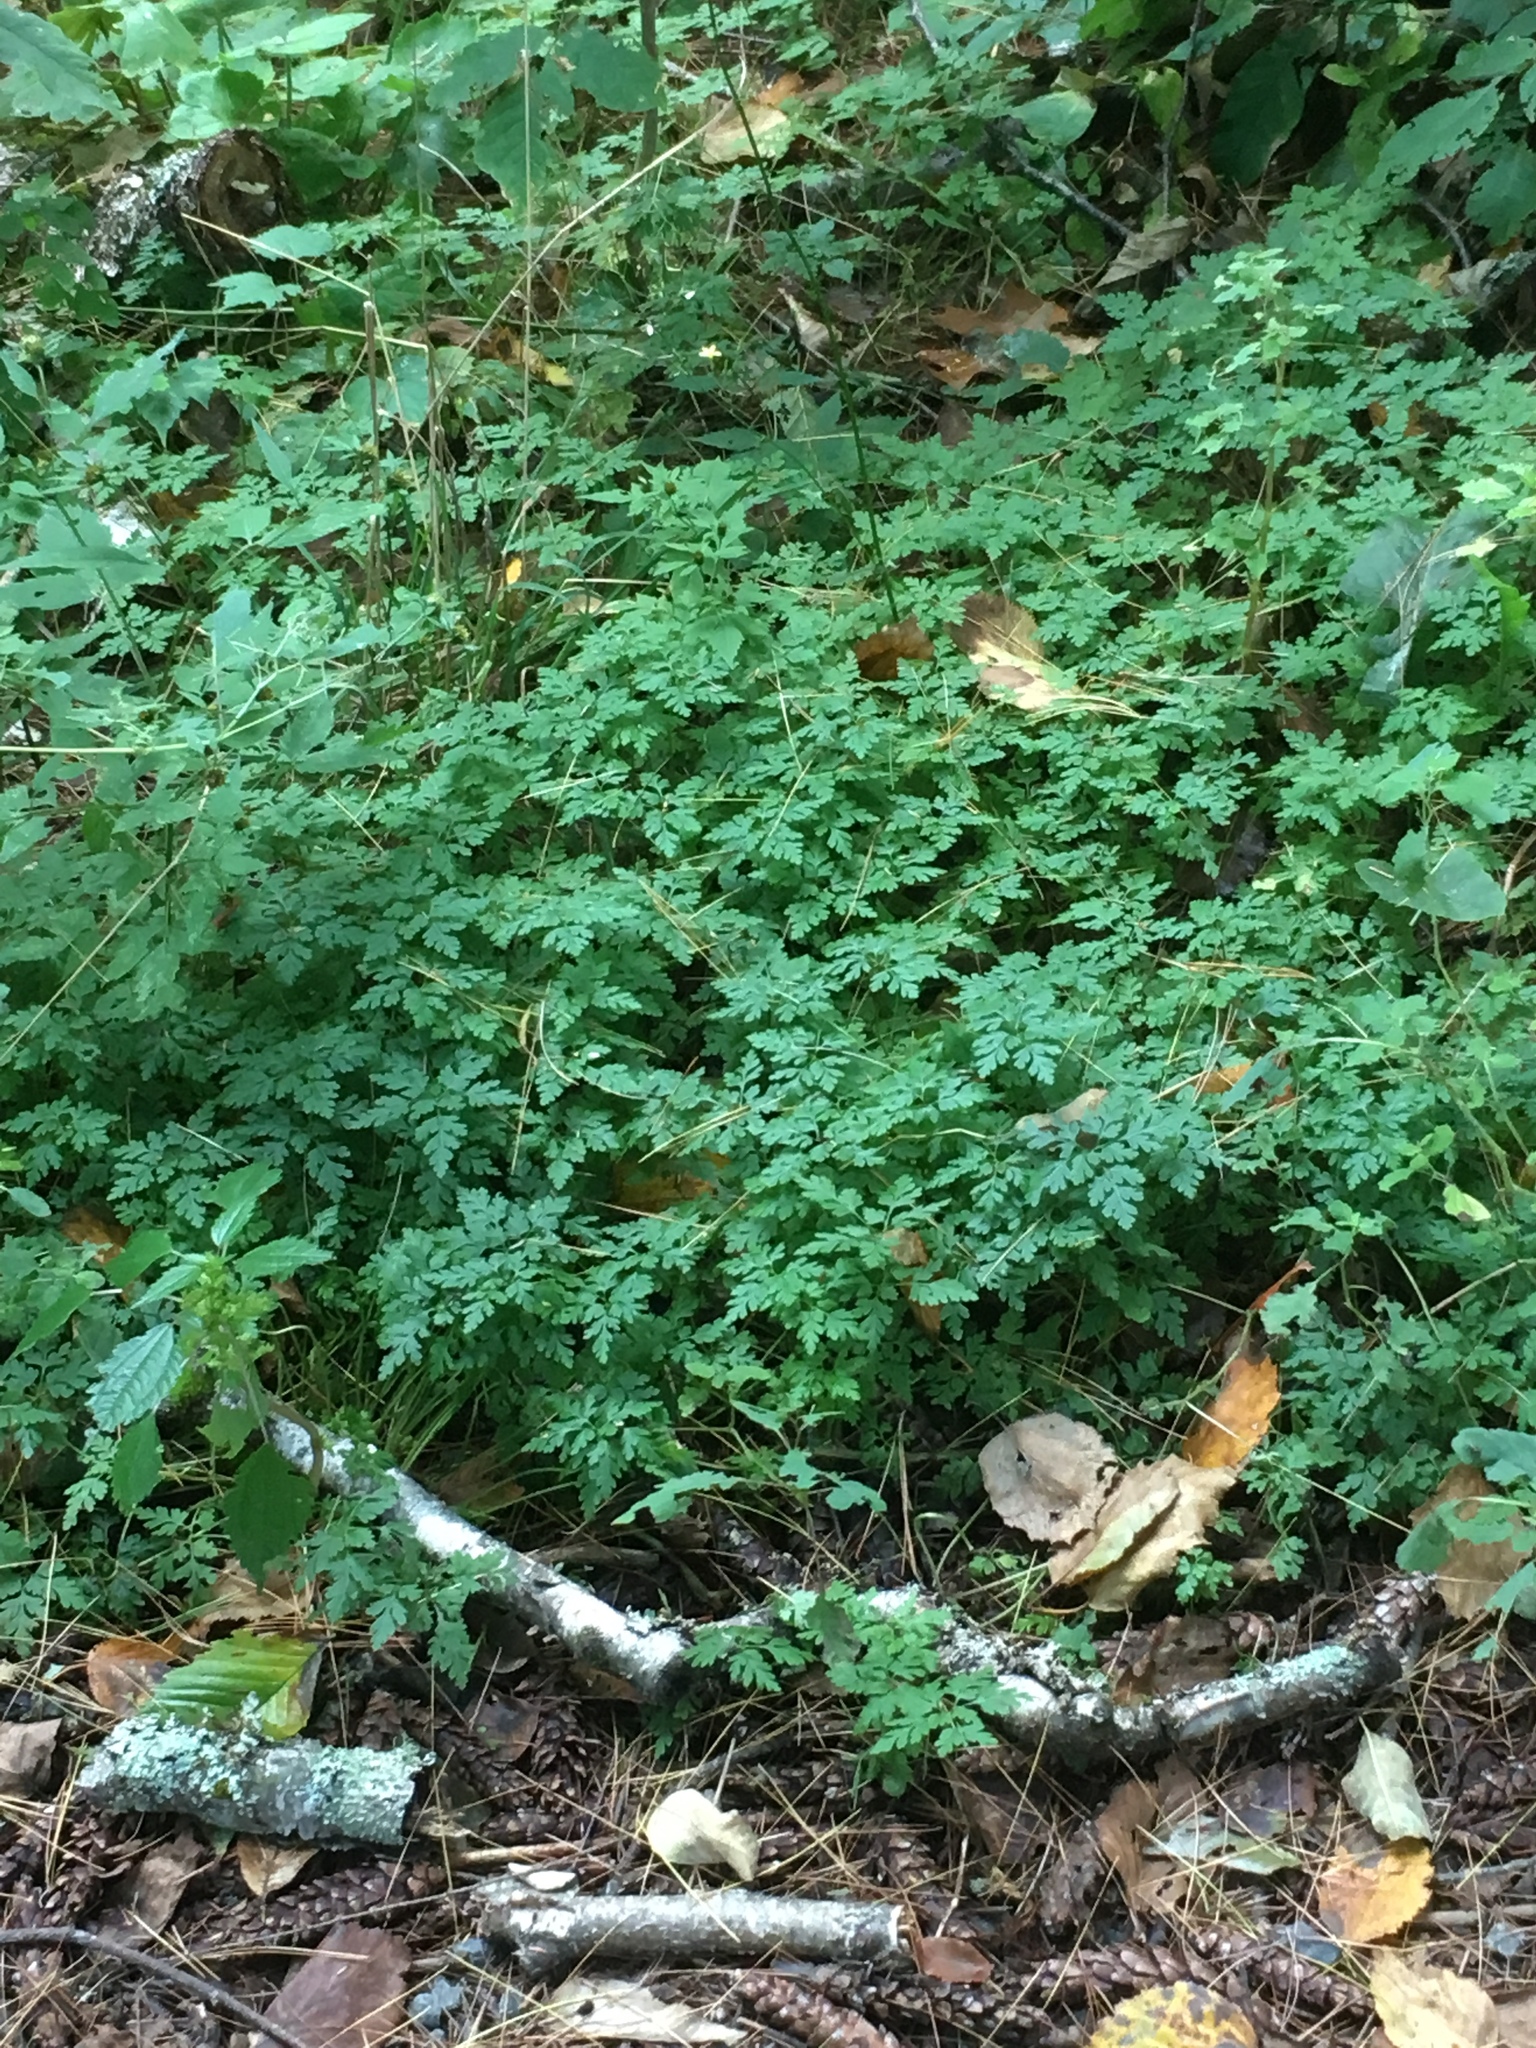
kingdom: Plantae
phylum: Tracheophyta
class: Magnoliopsida
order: Geraniales
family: Geraniaceae
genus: Geranium
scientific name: Geranium robertianum
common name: Herb-robert
